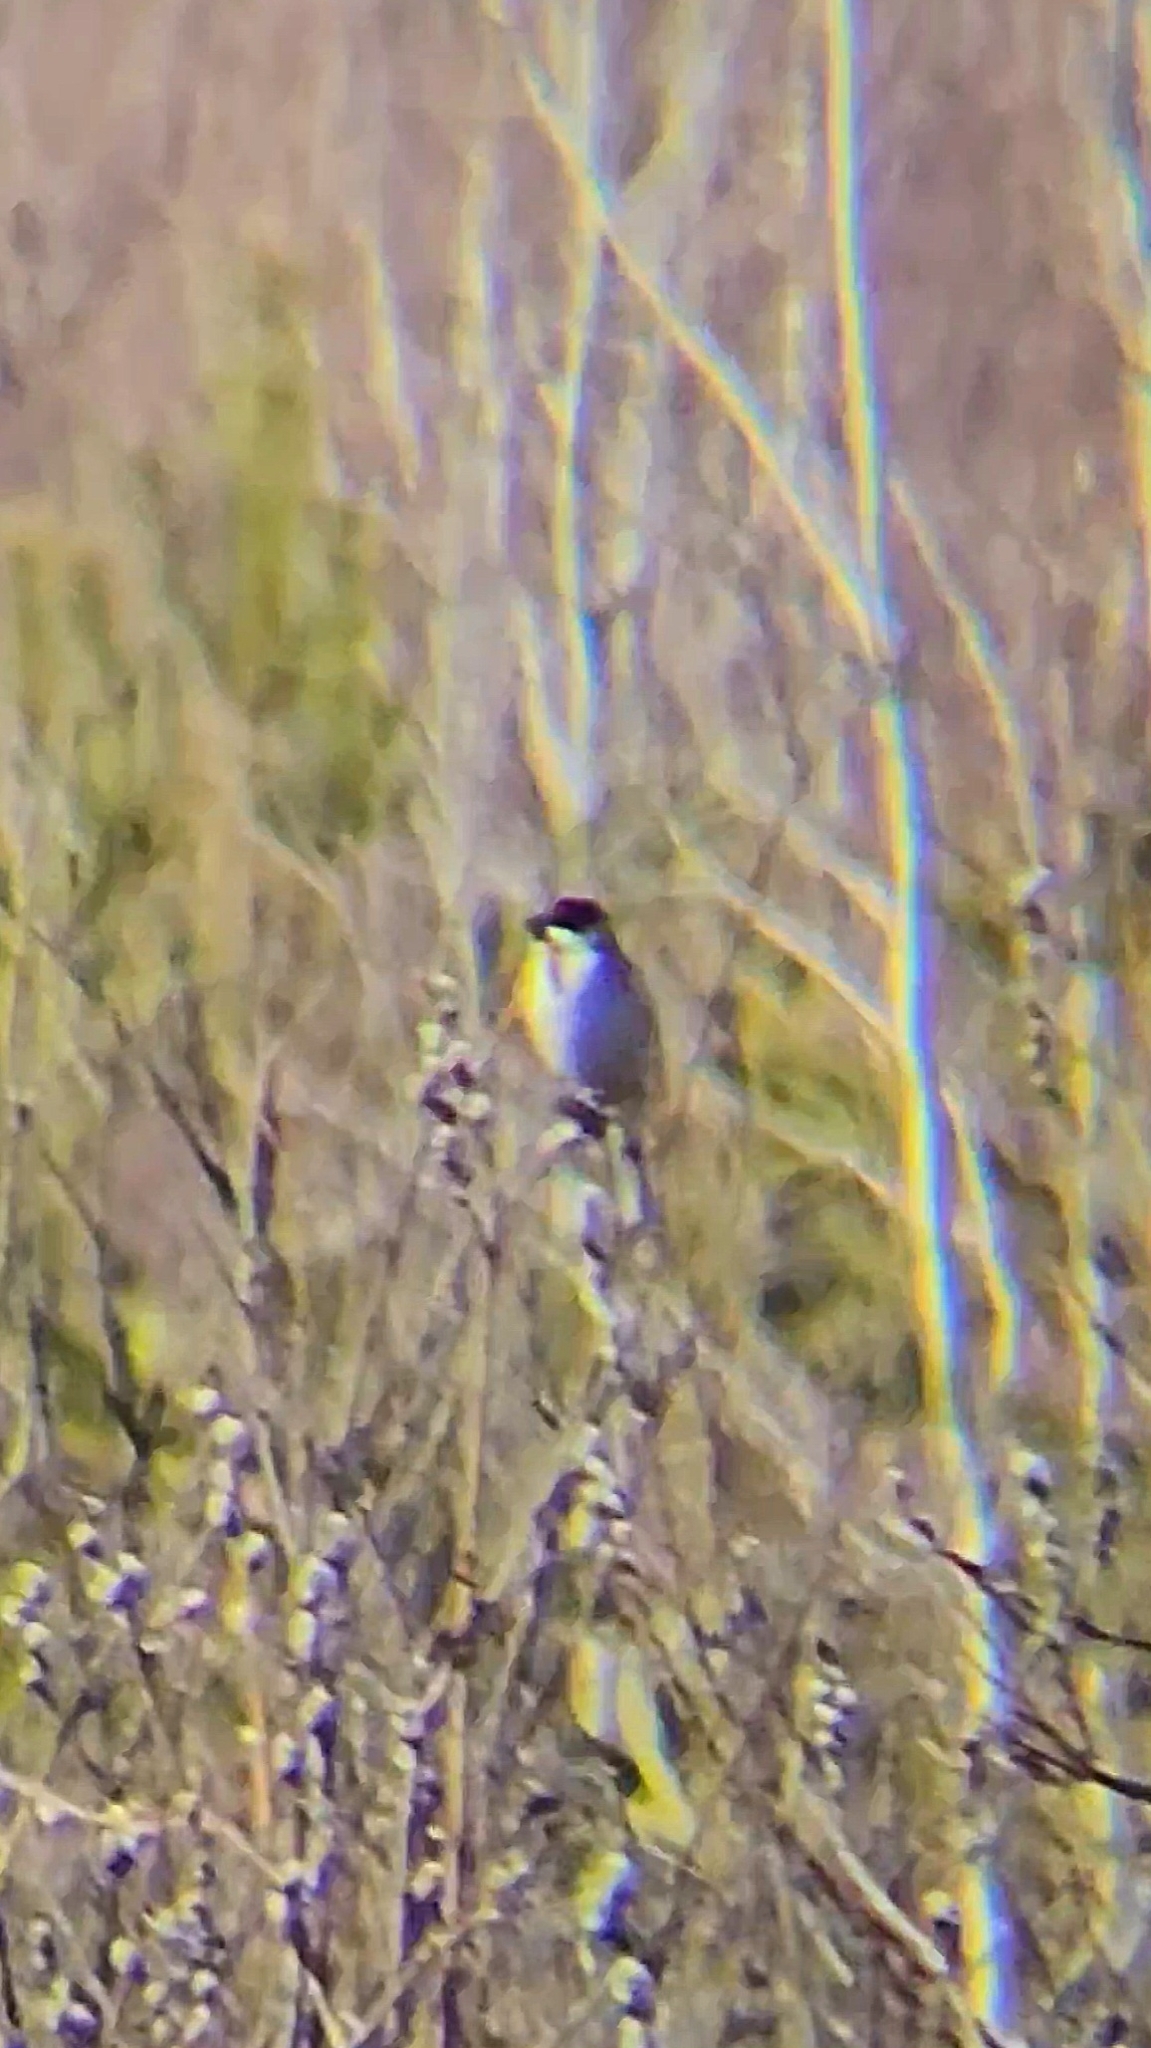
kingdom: Animalia
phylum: Chordata
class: Aves
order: Passeriformes
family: Emberizidae
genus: Emberiza
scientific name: Emberiza schoeniclus
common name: Reed bunting
